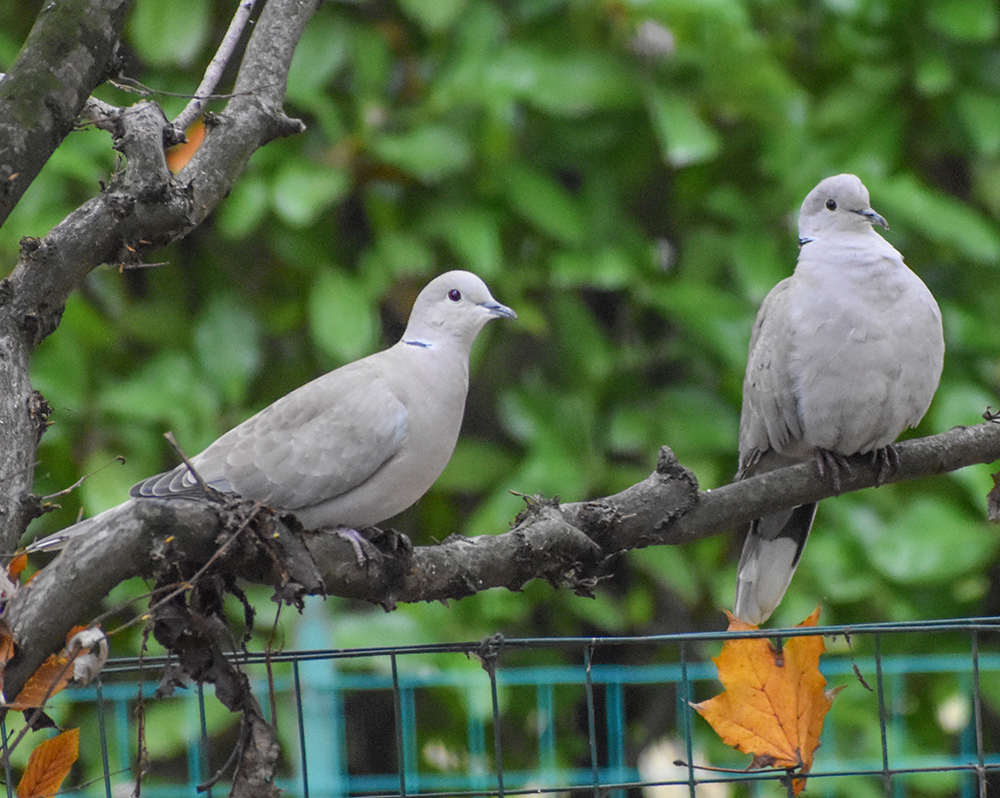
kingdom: Animalia
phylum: Chordata
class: Aves
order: Columbiformes
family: Columbidae
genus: Streptopelia
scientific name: Streptopelia decaocto
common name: Eurasian collared dove
